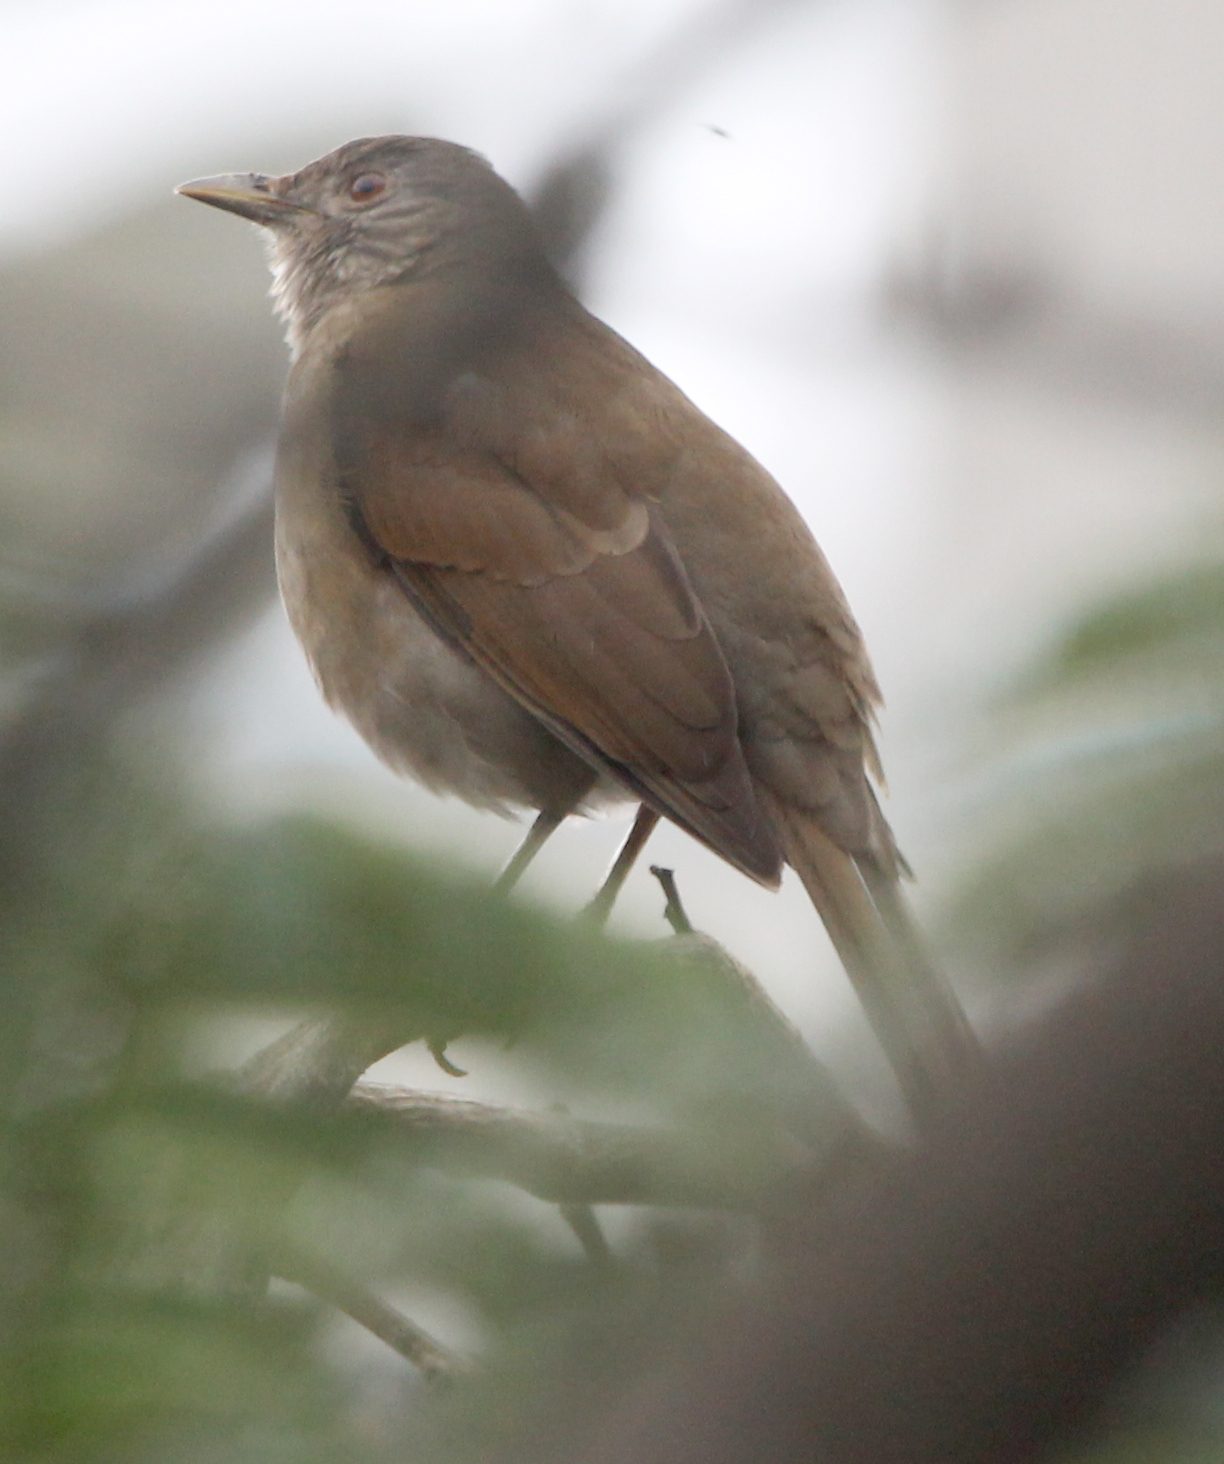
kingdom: Animalia
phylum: Chordata
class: Aves
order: Passeriformes
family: Turdidae
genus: Turdus
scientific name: Turdus leucomelas
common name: Pale-breasted thrush
